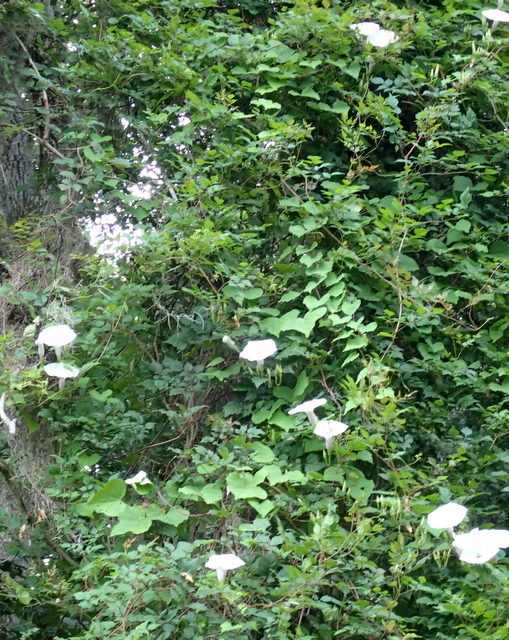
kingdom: Plantae
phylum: Tracheophyta
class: Magnoliopsida
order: Solanales
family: Convolvulaceae
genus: Ipomoea
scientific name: Ipomoea pandurata
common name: Man-of-the-earth
